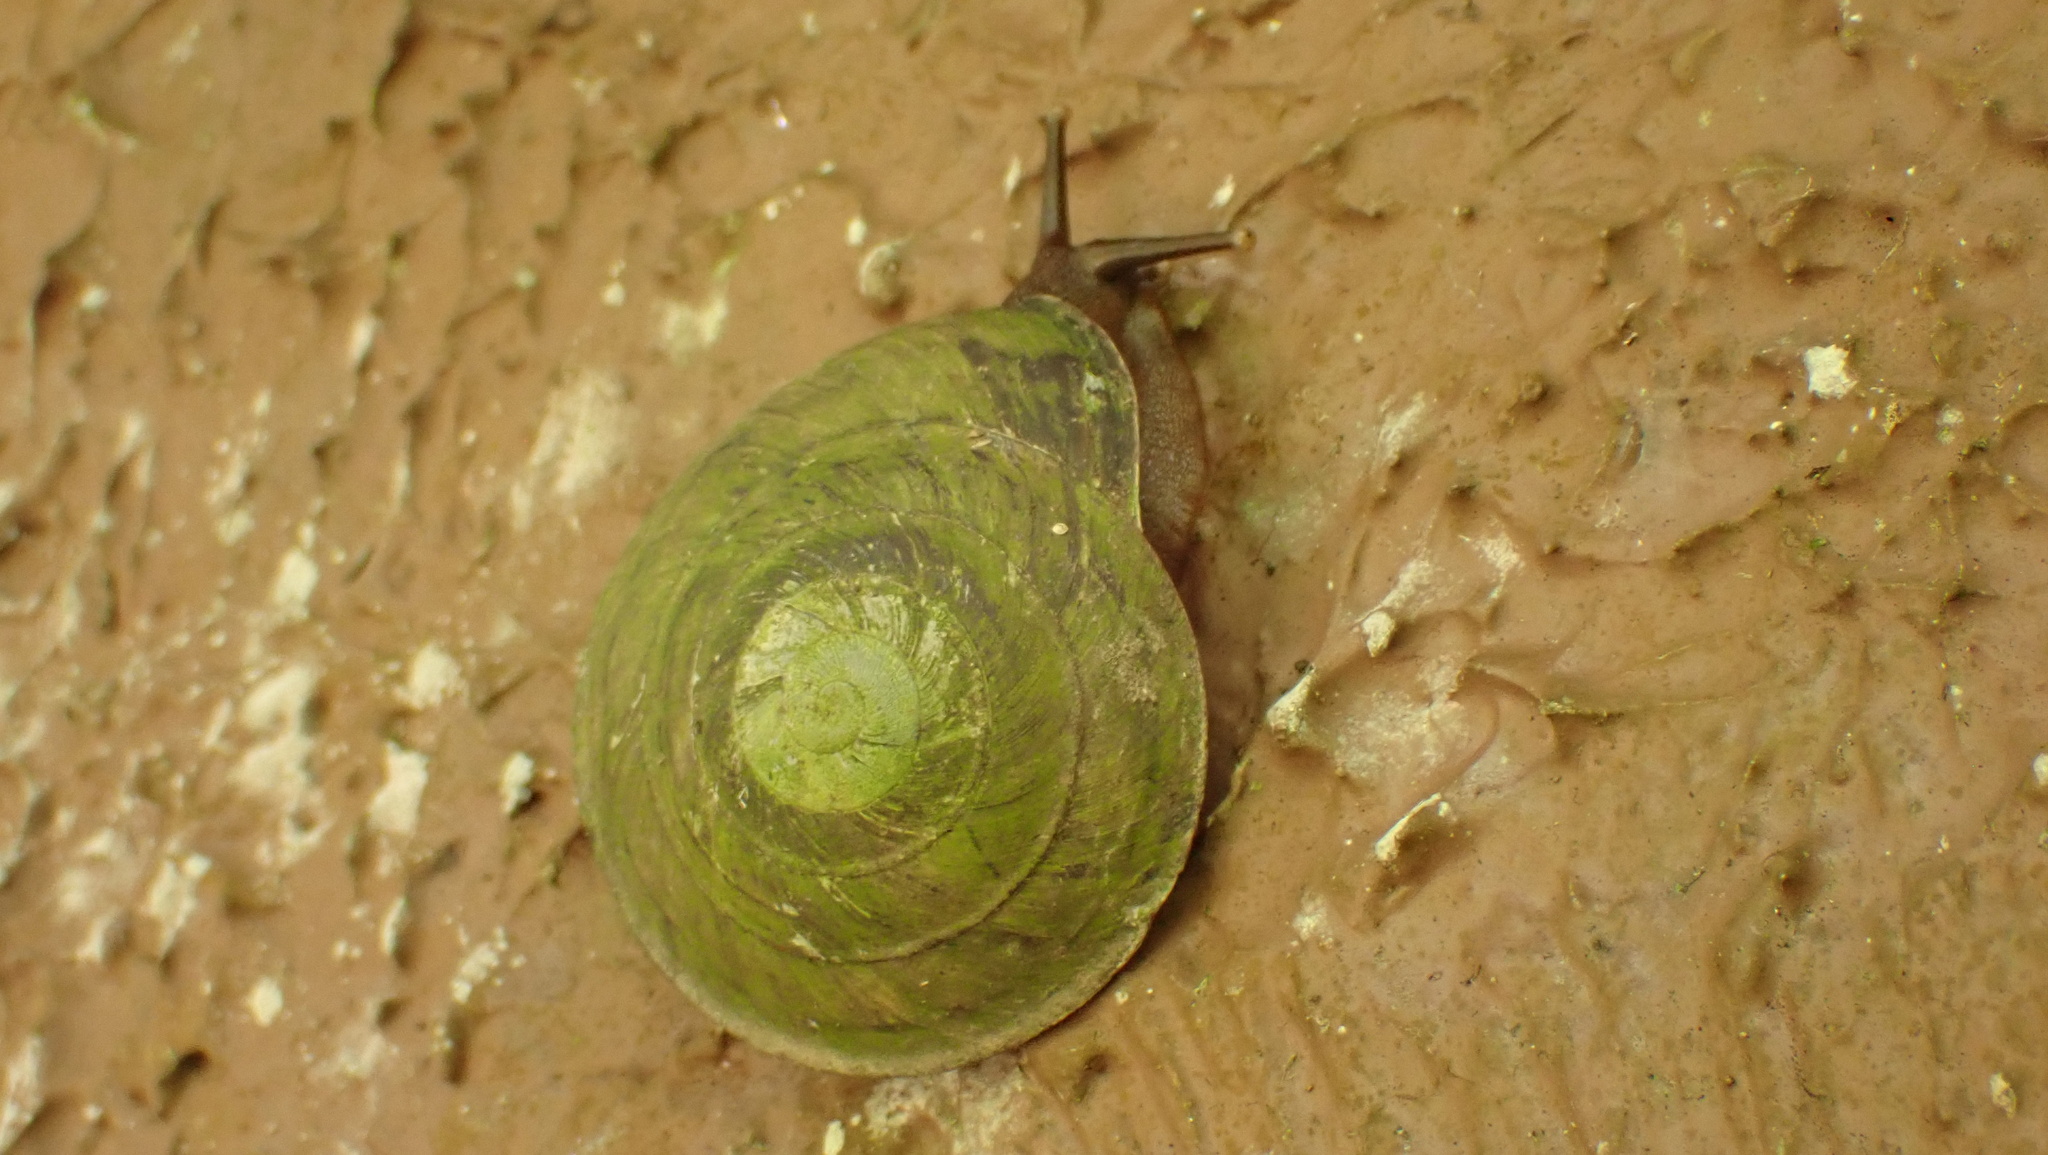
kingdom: Animalia
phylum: Mollusca
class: Gastropoda
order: Stylommatophora
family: Solaropsidae
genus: Caracolus
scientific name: Caracolus carocolla
